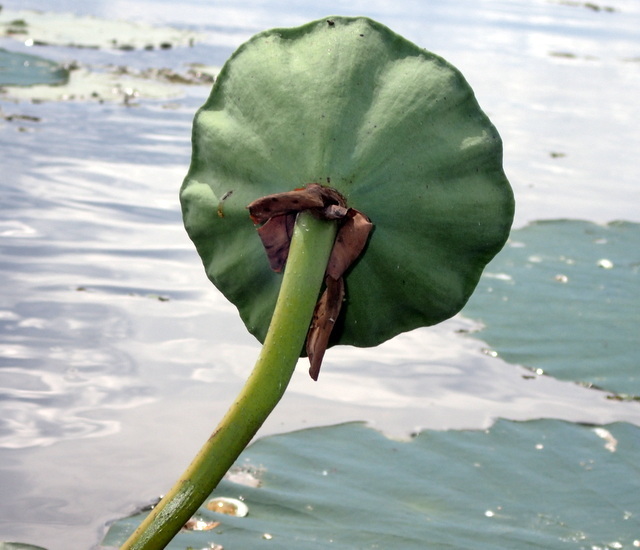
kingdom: Plantae
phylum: Tracheophyta
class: Magnoliopsida
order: Proteales
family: Nelumbonaceae
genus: Nelumbo
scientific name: Nelumbo lutea
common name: American lotus
